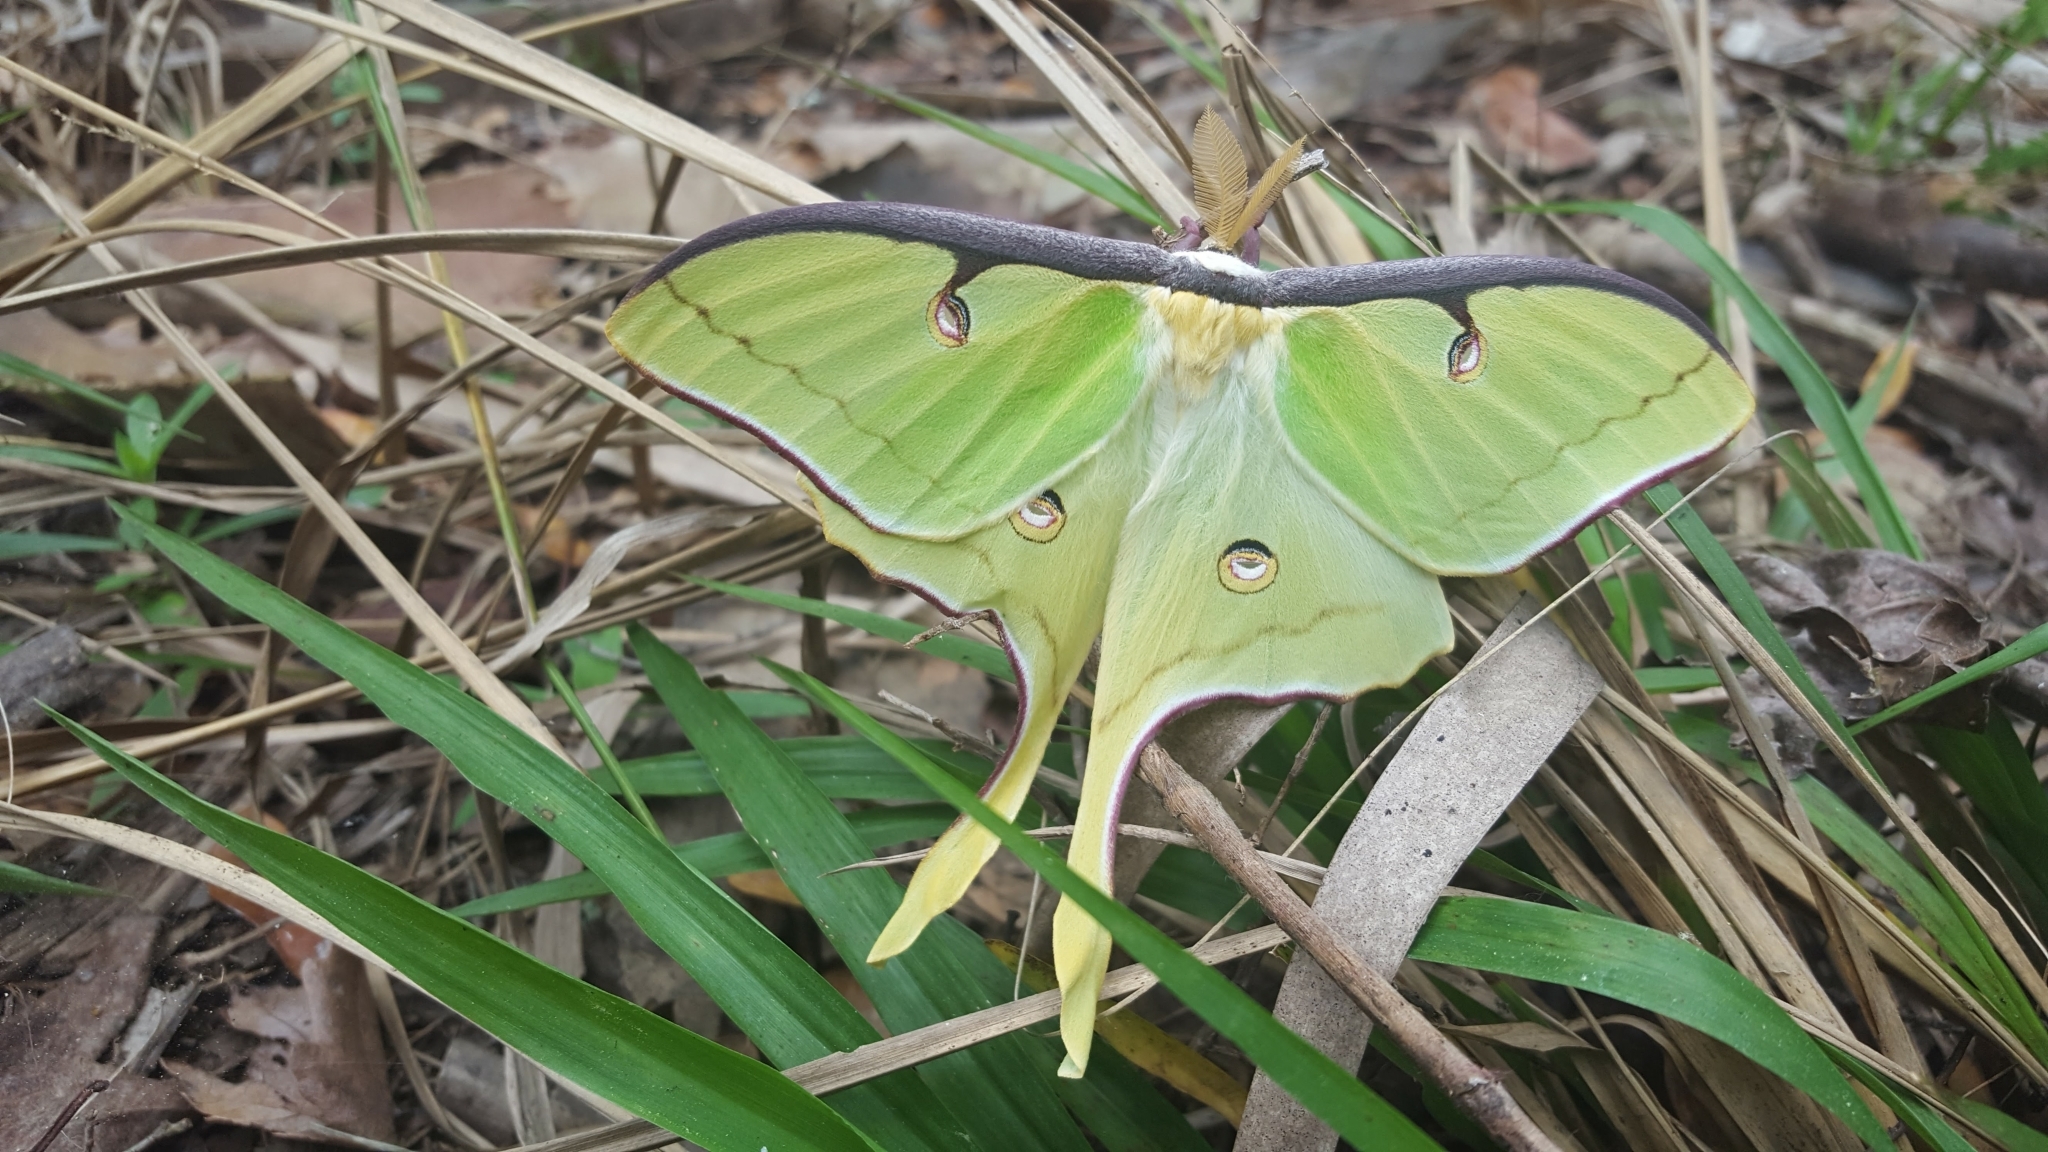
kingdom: Animalia
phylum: Arthropoda
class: Insecta
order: Lepidoptera
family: Saturniidae
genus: Actias
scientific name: Actias luna
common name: Luna moth
